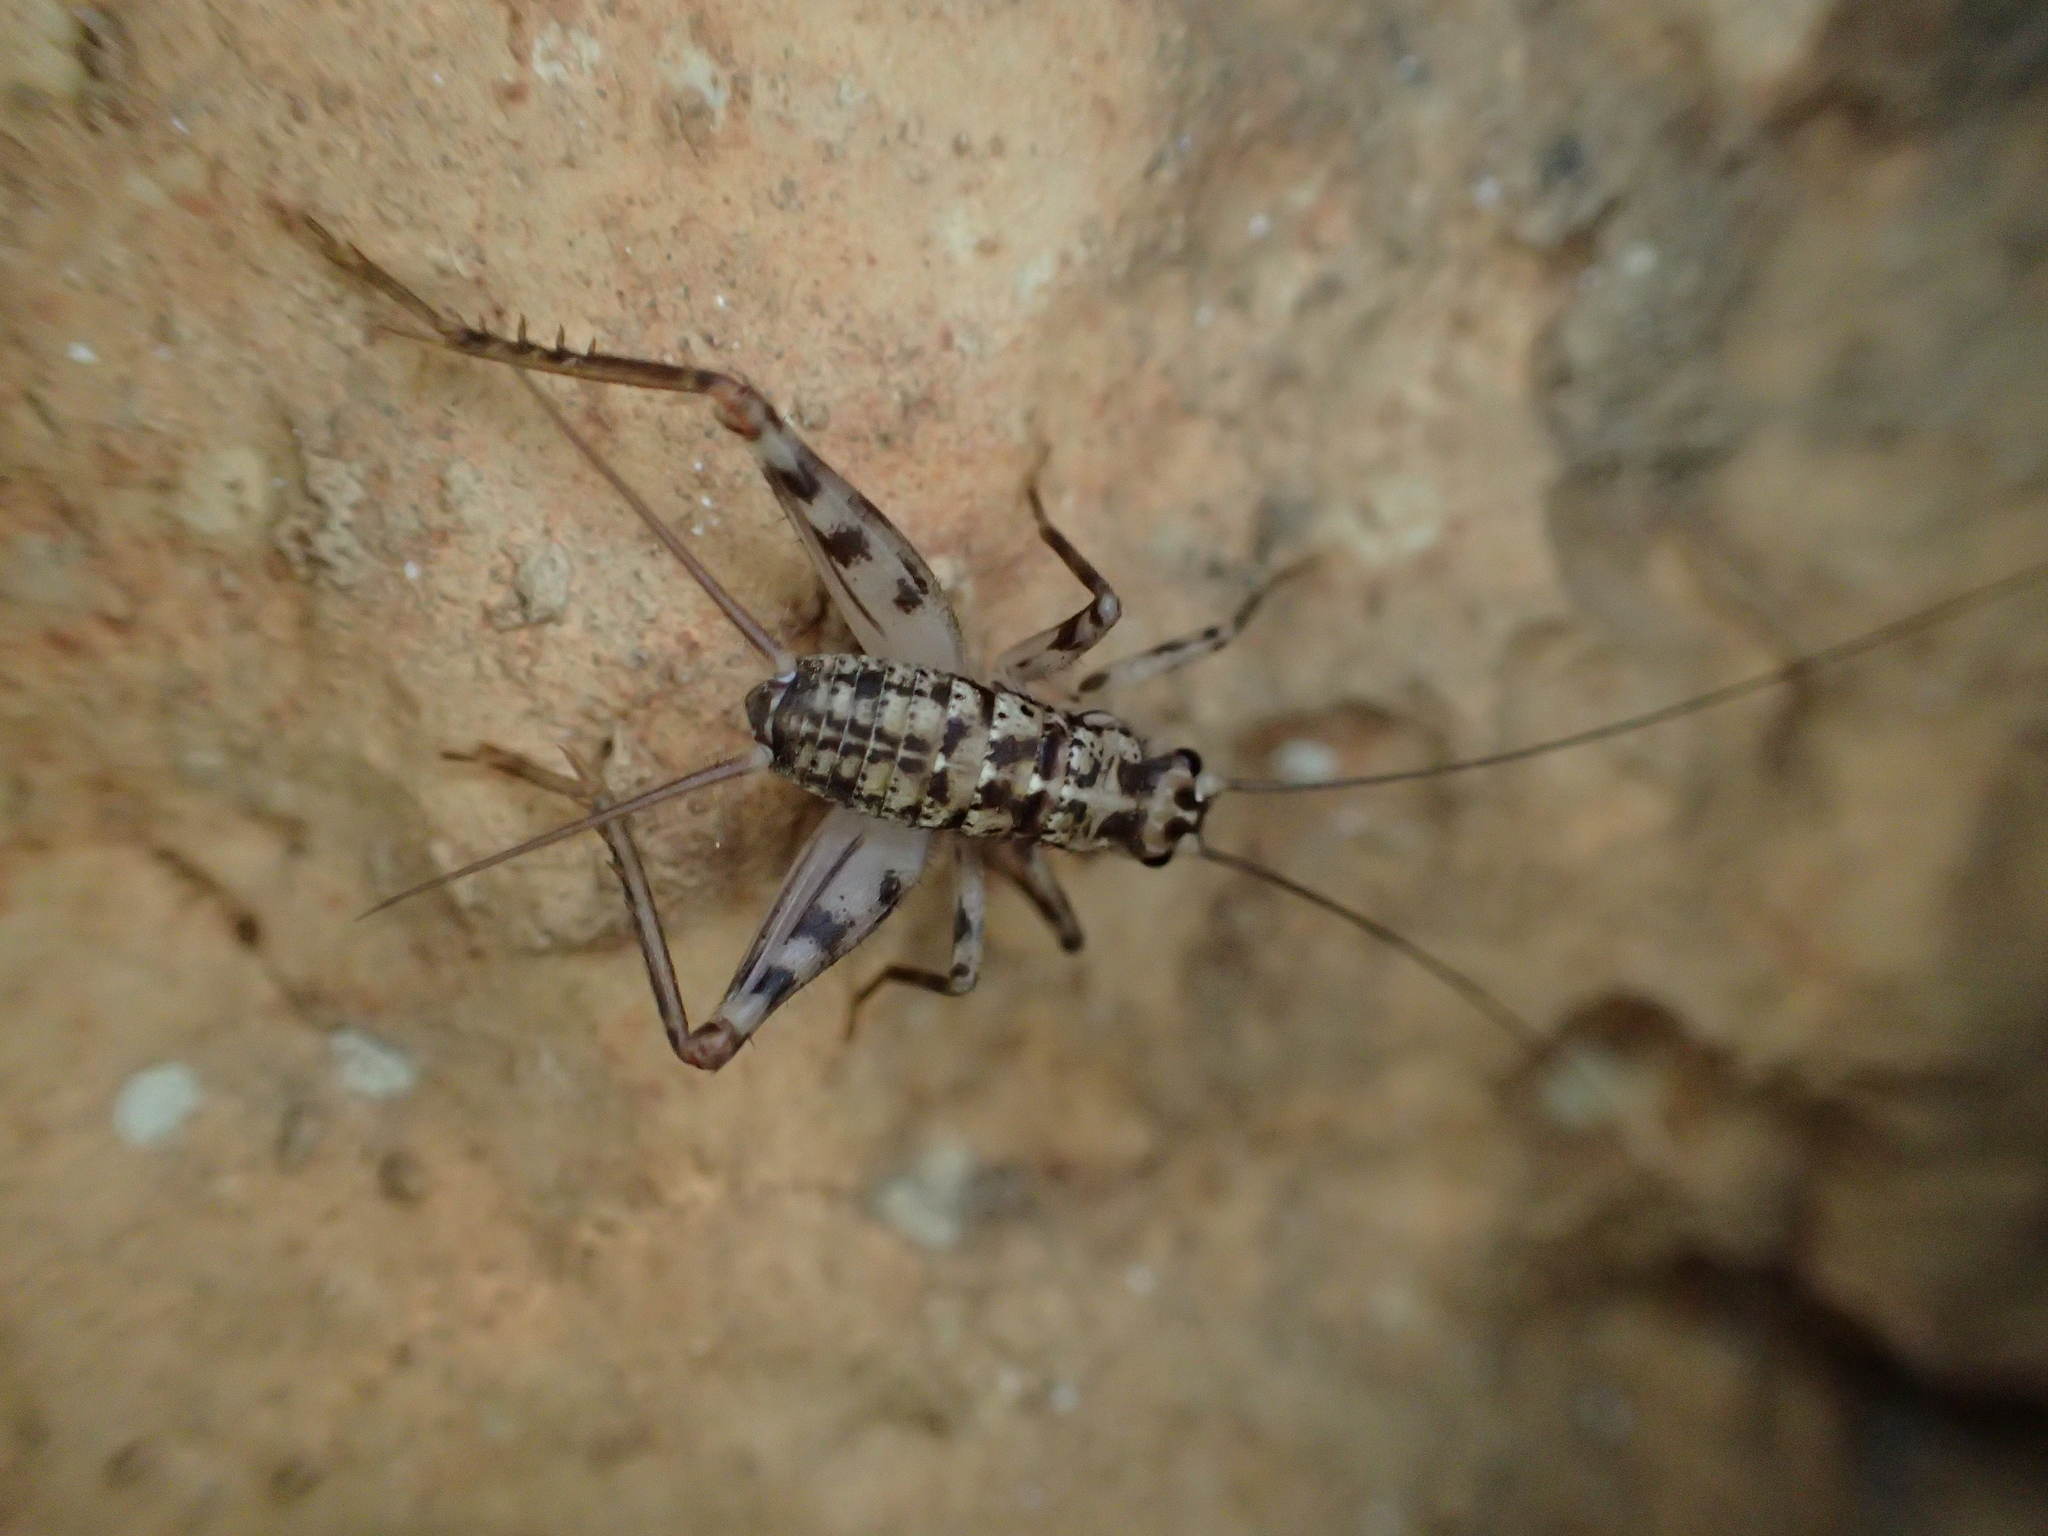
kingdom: Animalia
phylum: Arthropoda
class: Insecta
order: Orthoptera
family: Gryllidae
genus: Gryllomorpha
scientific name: Gryllomorpha dalmatina
